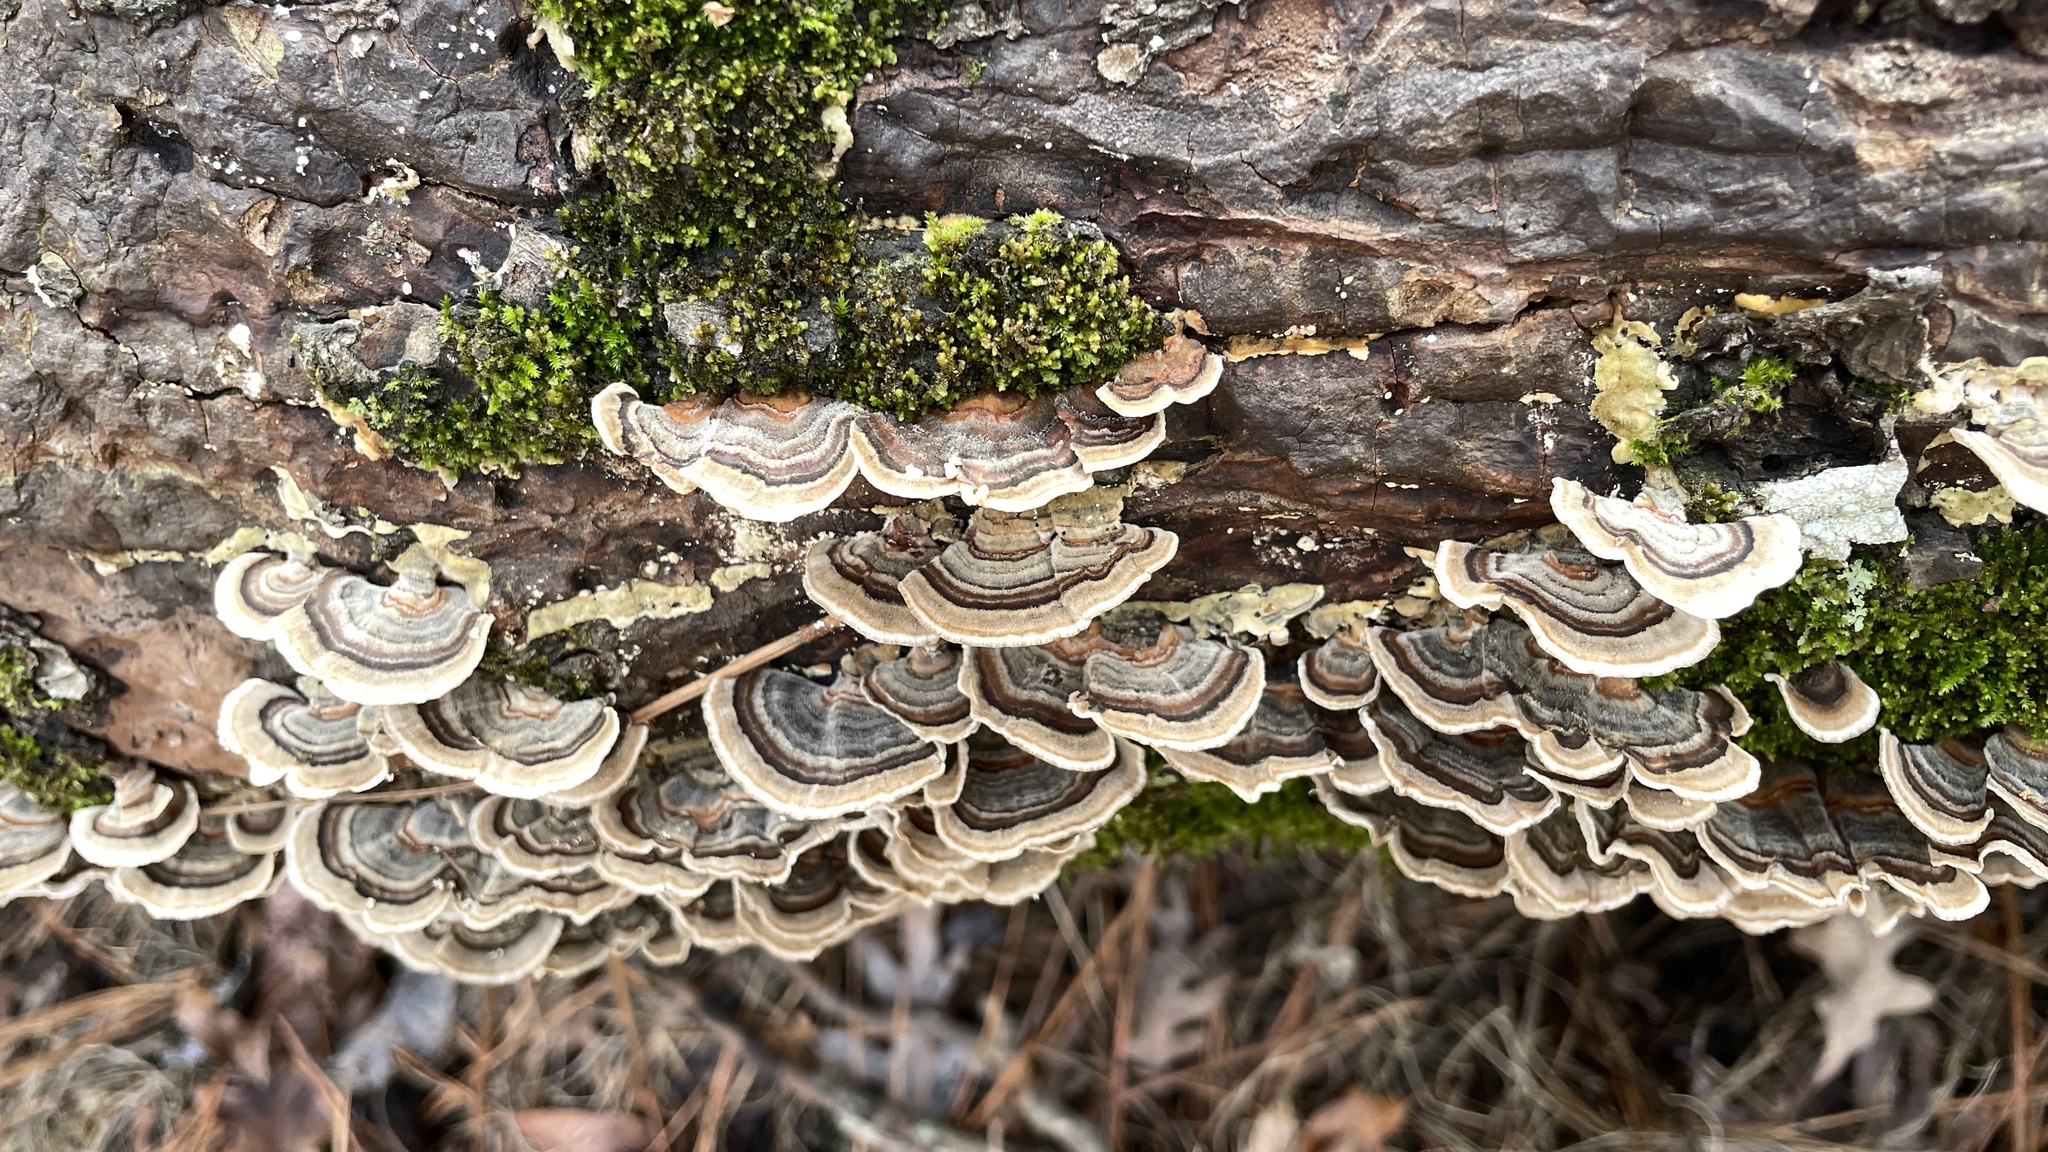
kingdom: Fungi
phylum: Basidiomycota
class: Agaricomycetes
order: Polyporales
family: Polyporaceae
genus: Trametes
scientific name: Trametes versicolor
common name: Turkeytail
